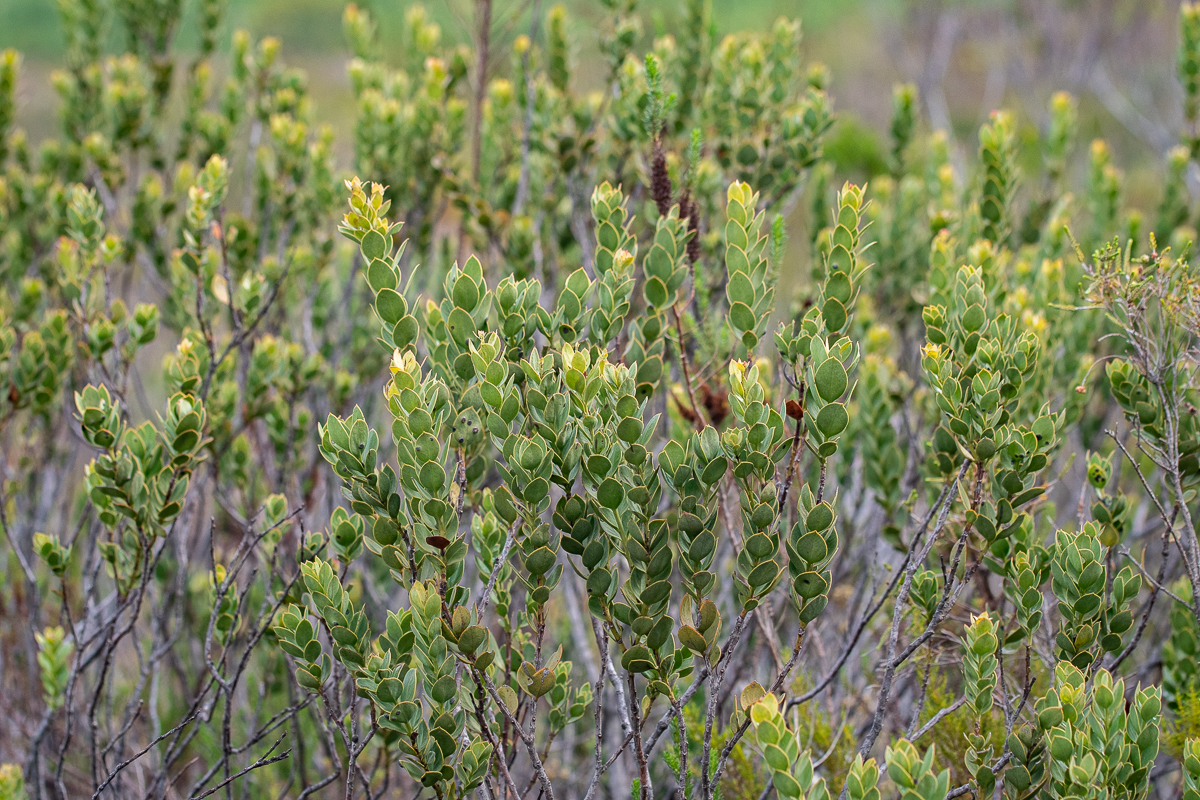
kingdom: Plantae
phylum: Tracheophyta
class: Magnoliopsida
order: Santalales
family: Santalaceae
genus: Osyris
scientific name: Osyris compressa
